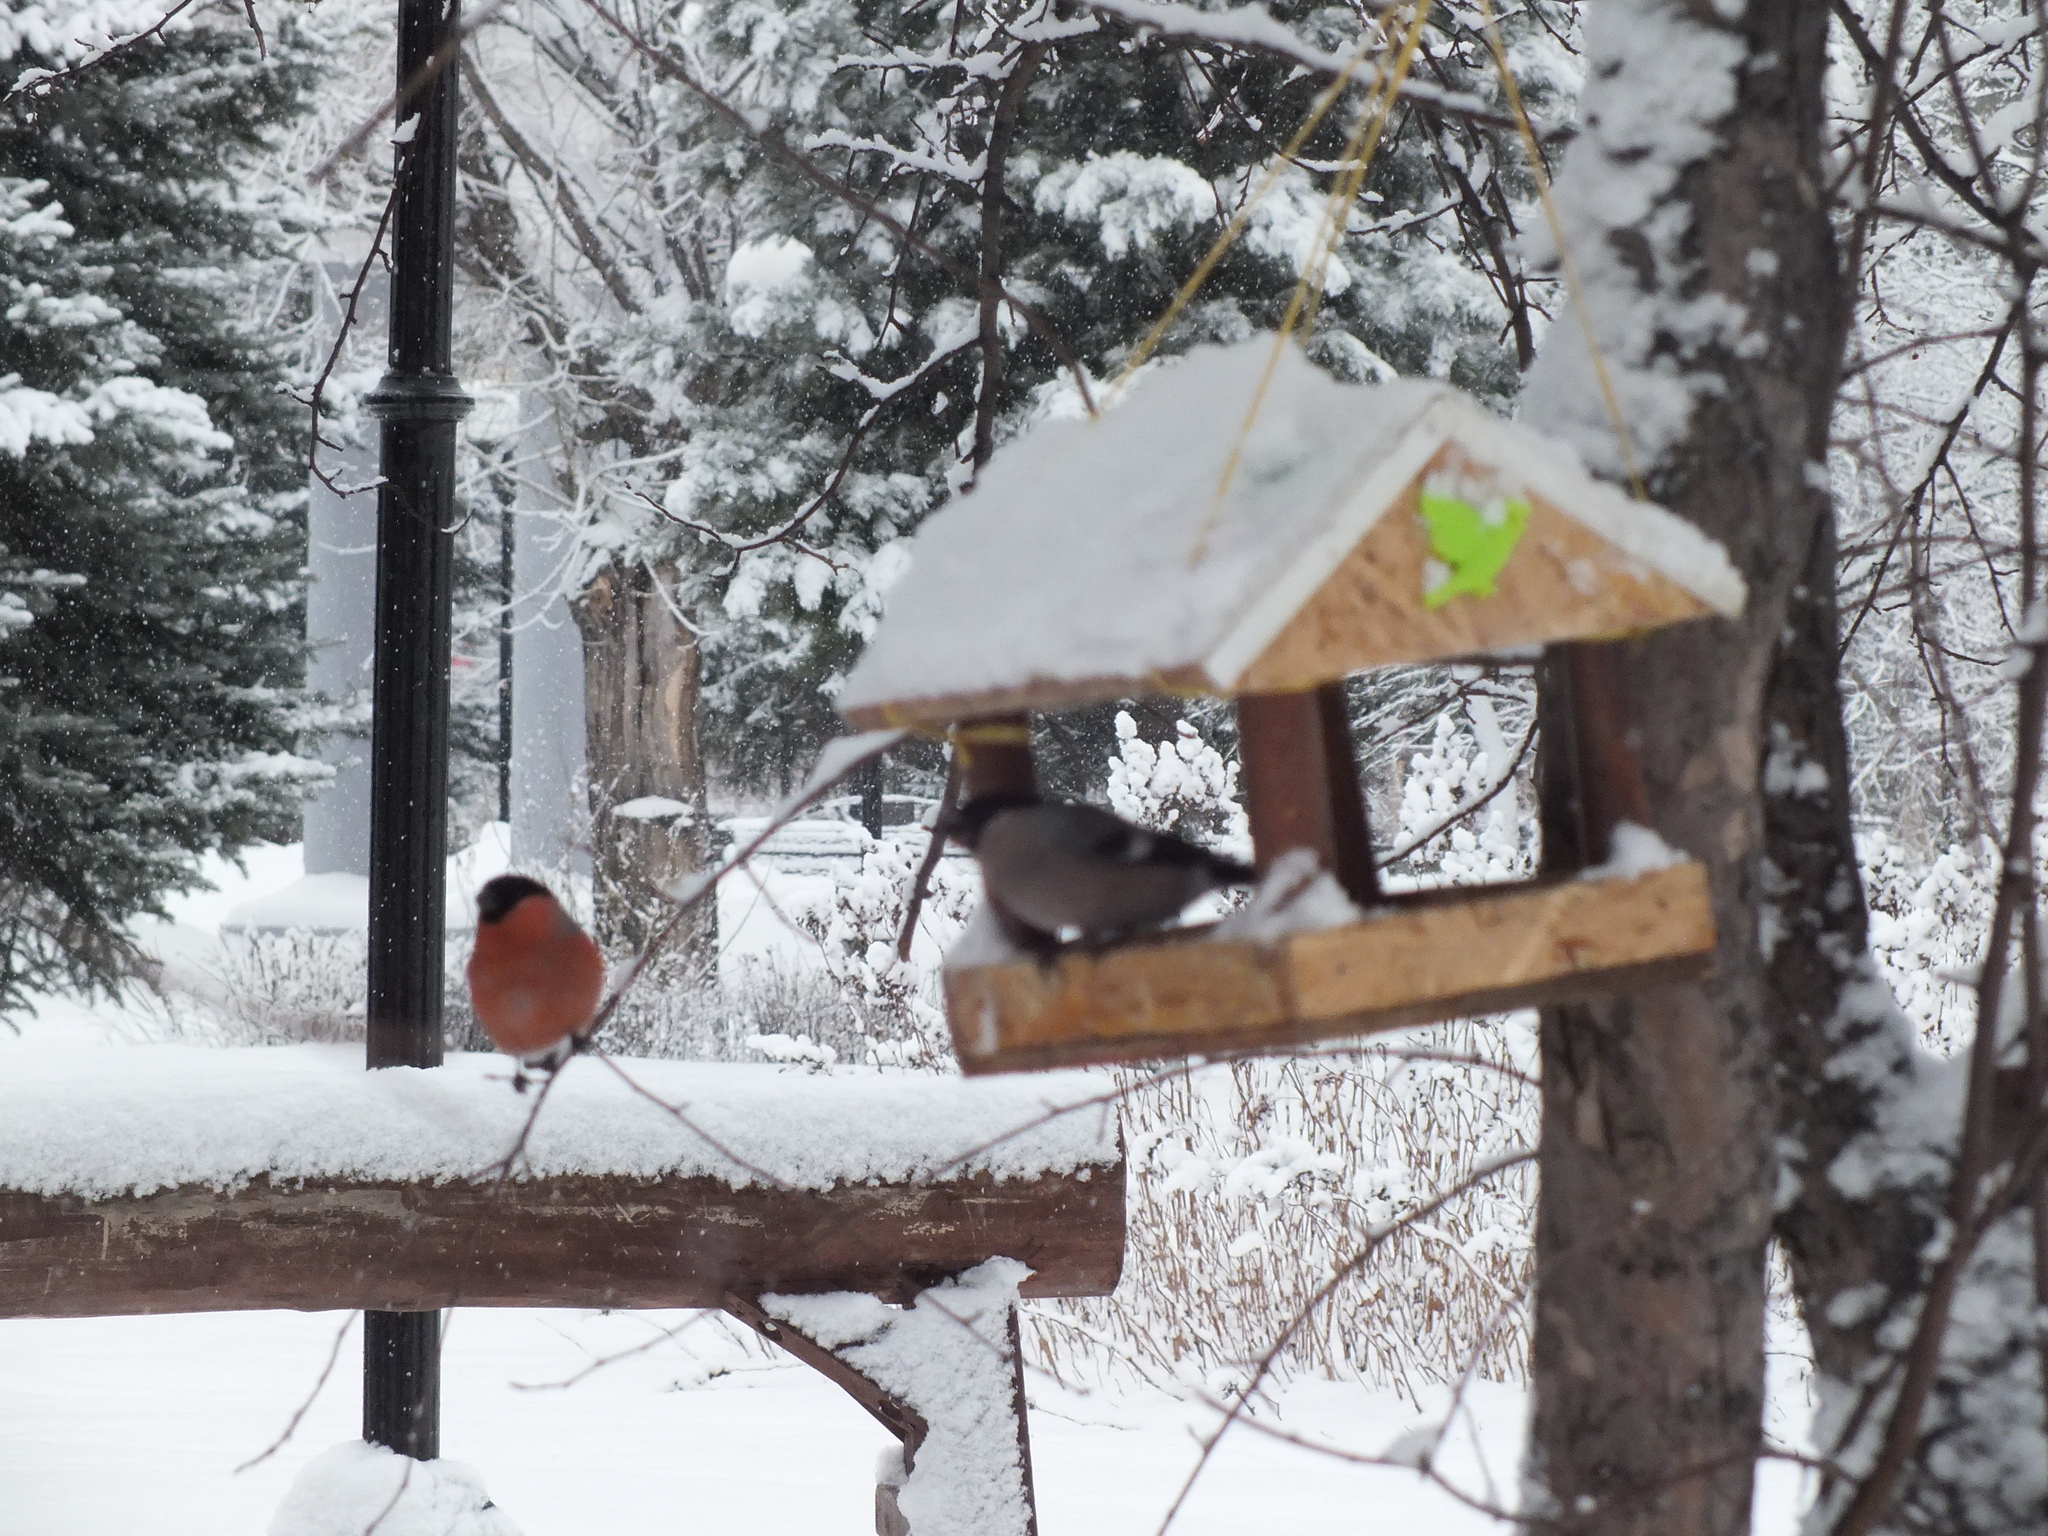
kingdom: Animalia
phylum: Chordata
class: Aves
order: Passeriformes
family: Fringillidae
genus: Pyrrhula
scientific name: Pyrrhula pyrrhula
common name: Eurasian bullfinch
